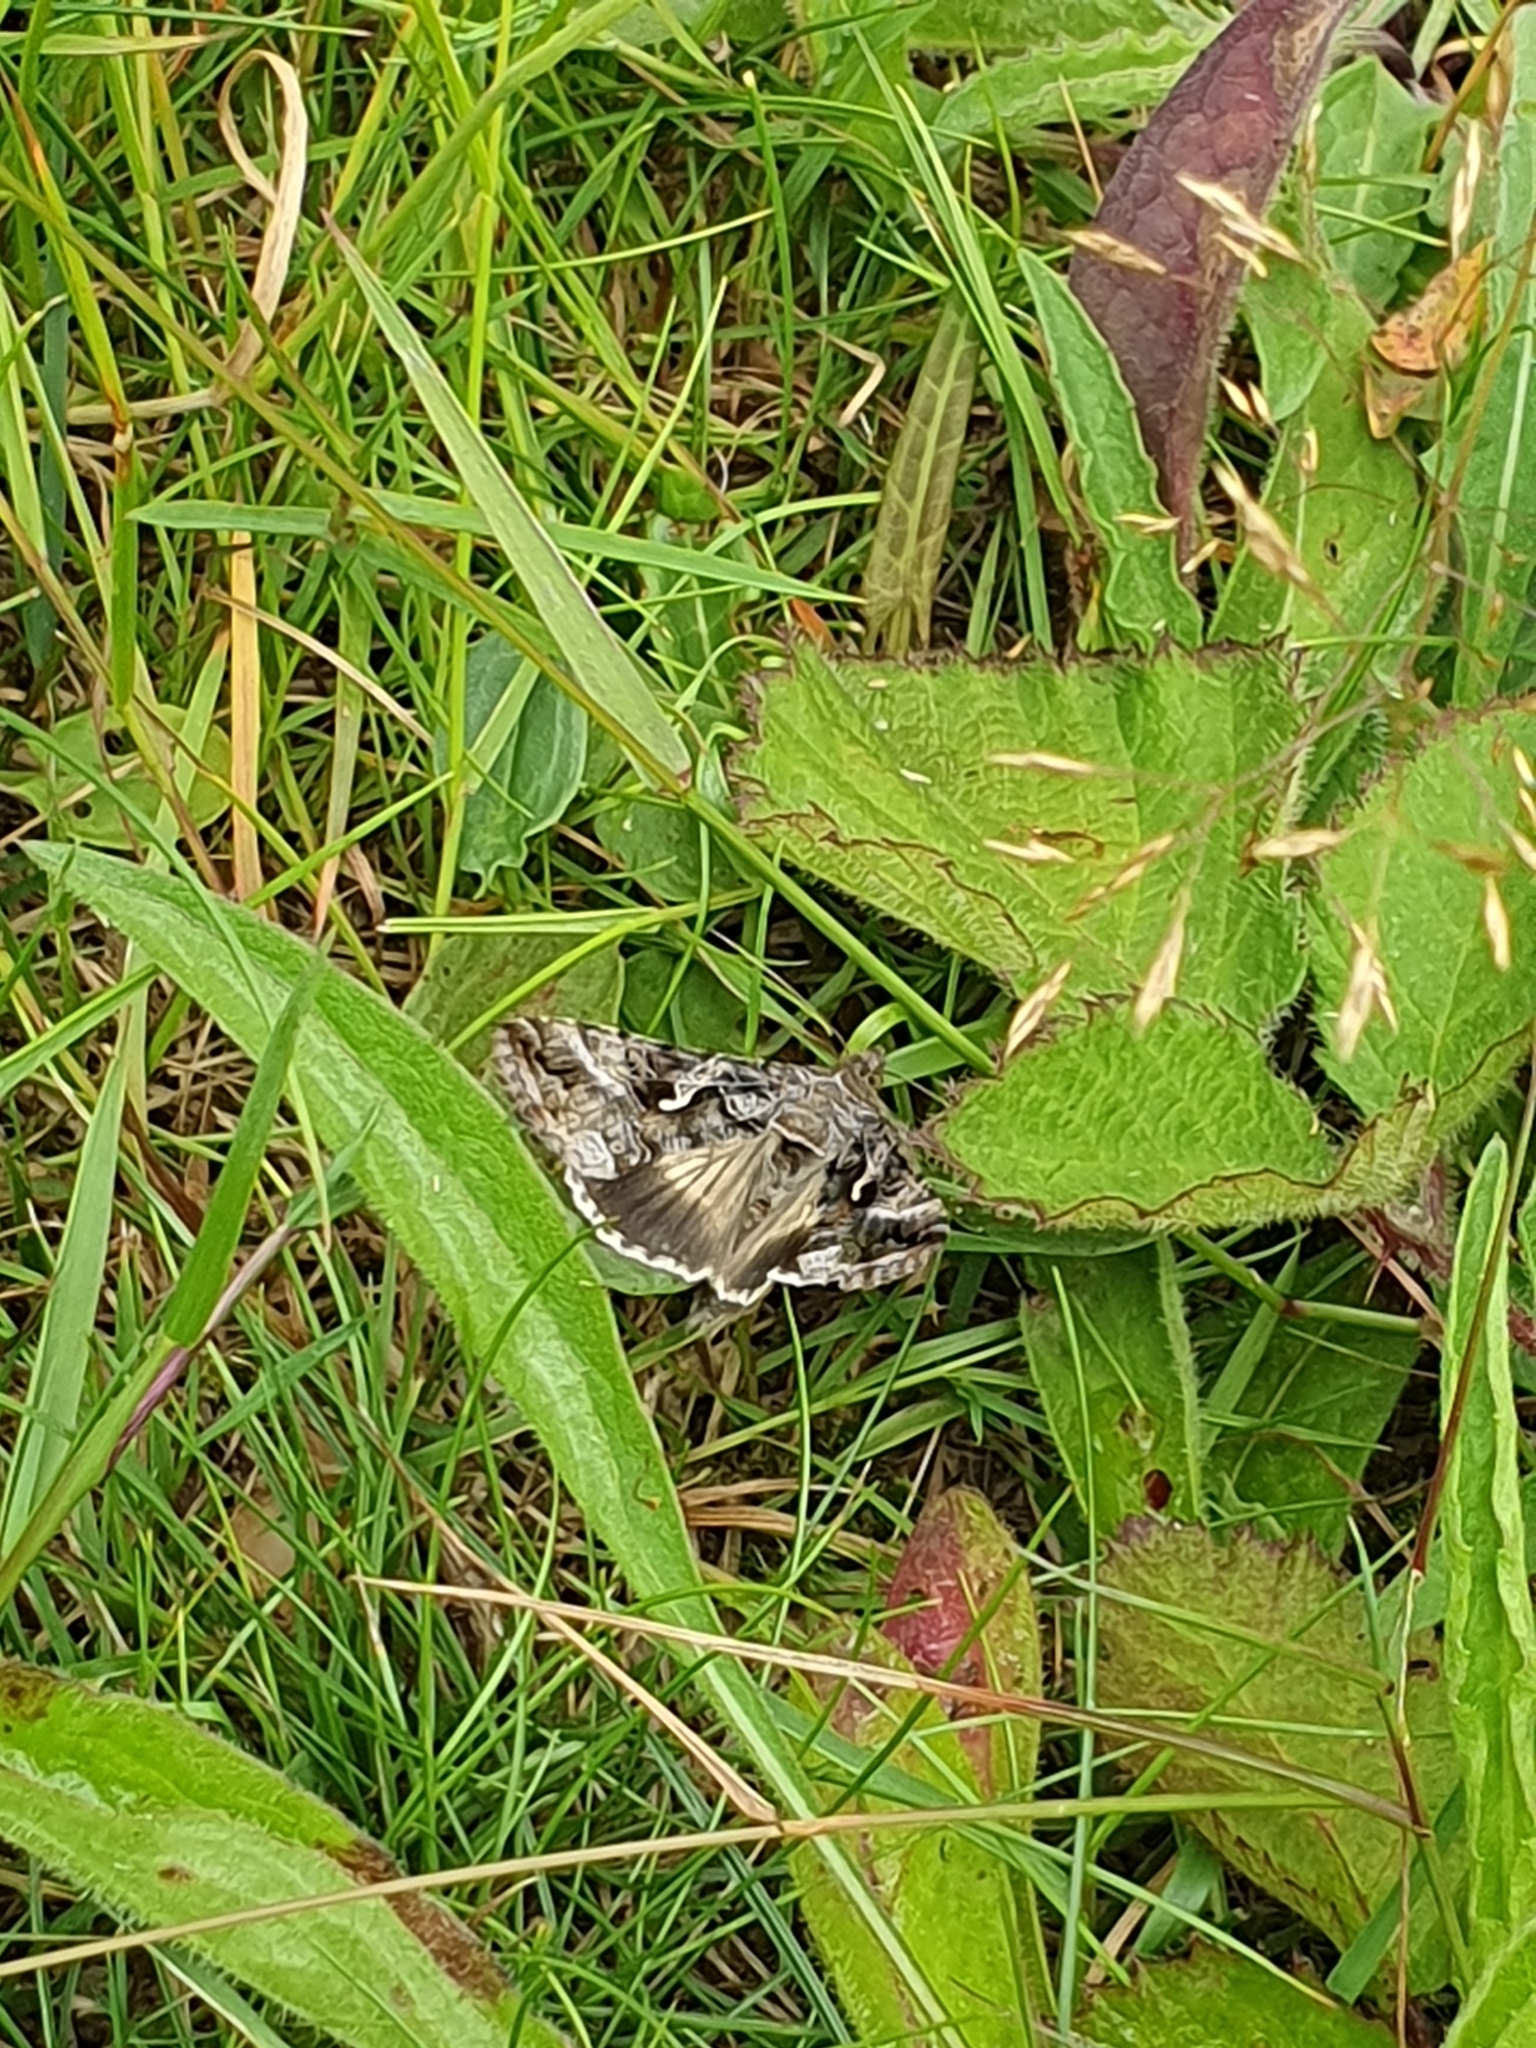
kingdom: Animalia
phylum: Arthropoda
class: Insecta
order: Lepidoptera
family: Noctuidae
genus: Autographa
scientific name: Autographa gamma
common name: Silver y
